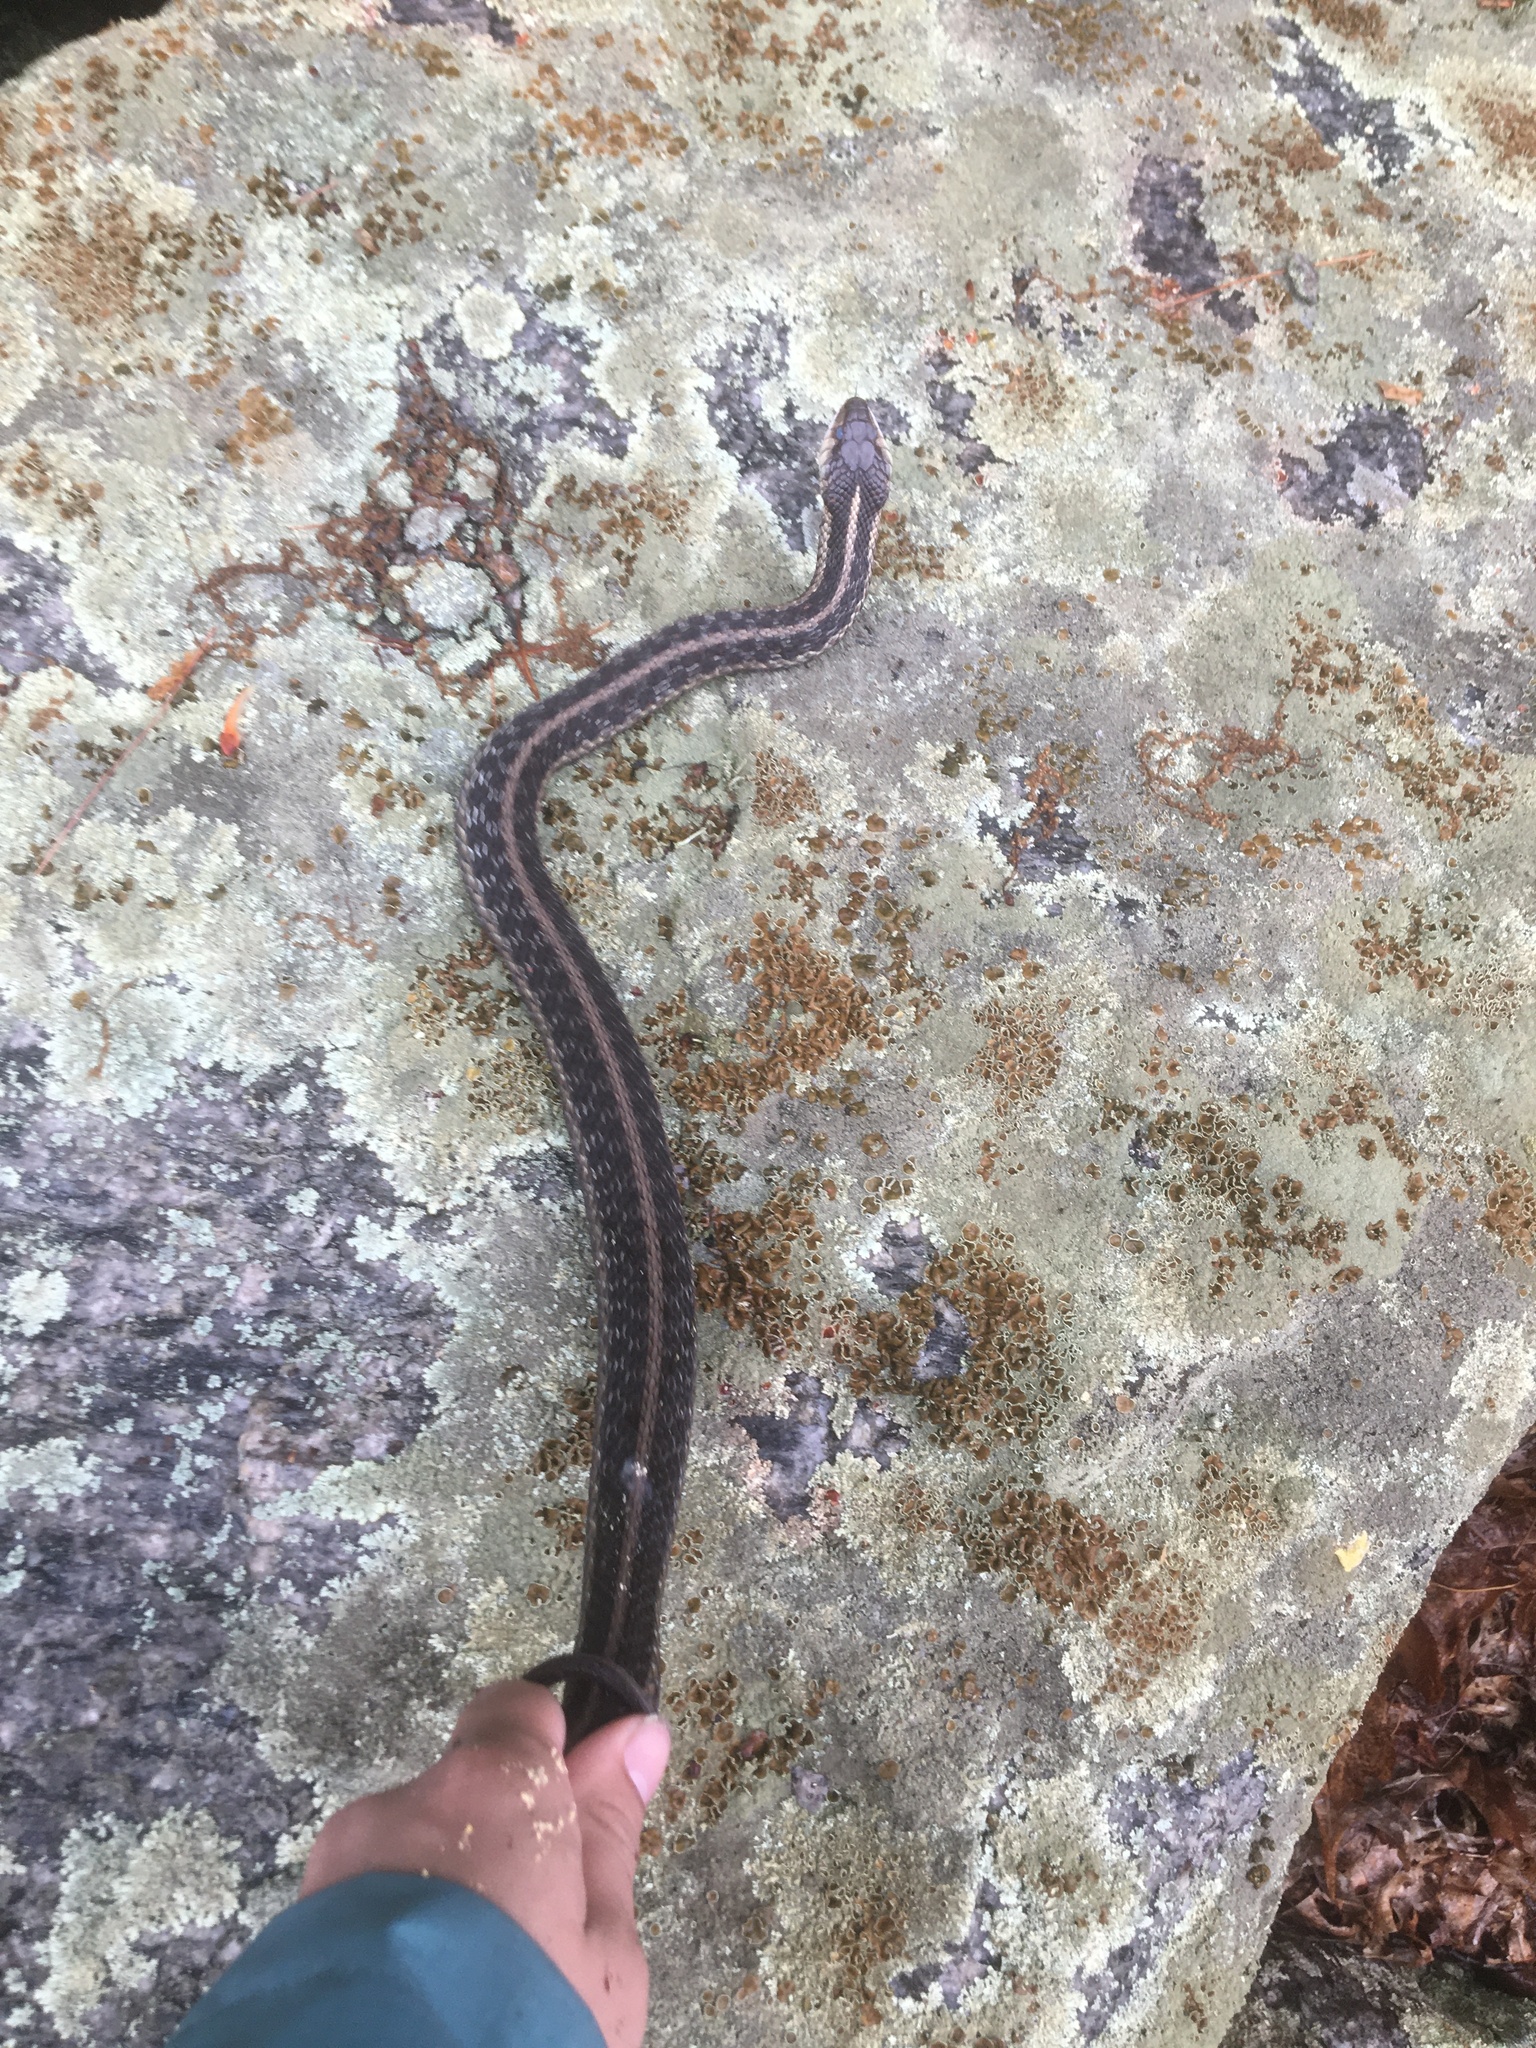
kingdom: Animalia
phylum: Chordata
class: Squamata
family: Colubridae
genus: Thamnophis
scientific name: Thamnophis sirtalis
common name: Common garter snake
